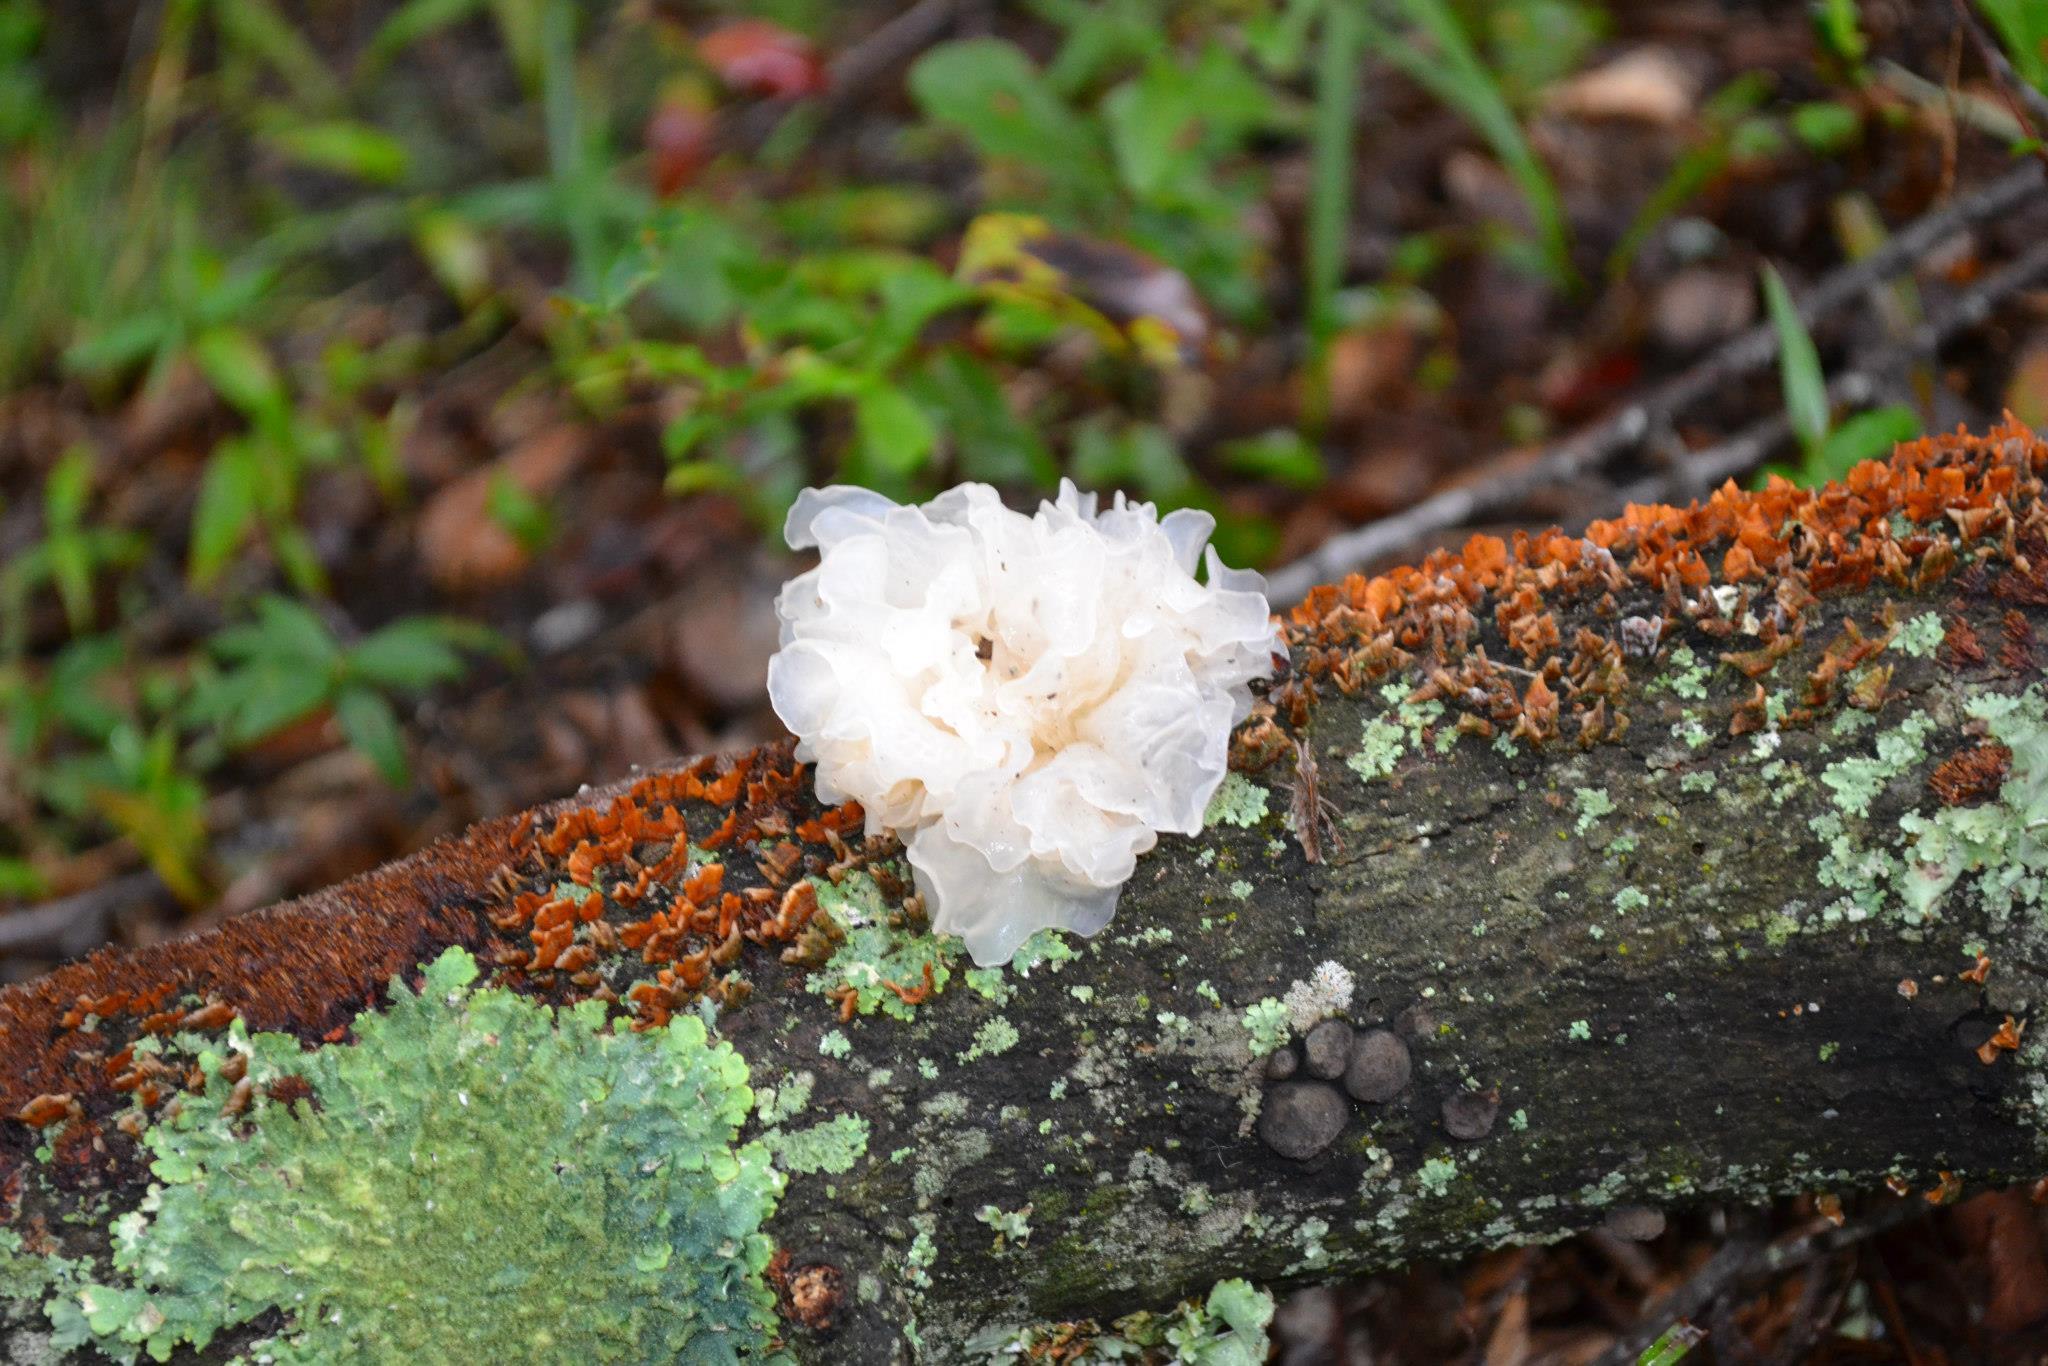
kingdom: Fungi
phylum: Basidiomycota
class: Tremellomycetes
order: Tremellales
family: Tremellaceae
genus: Tremella
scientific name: Tremella fuciformis
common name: Snow fungus
